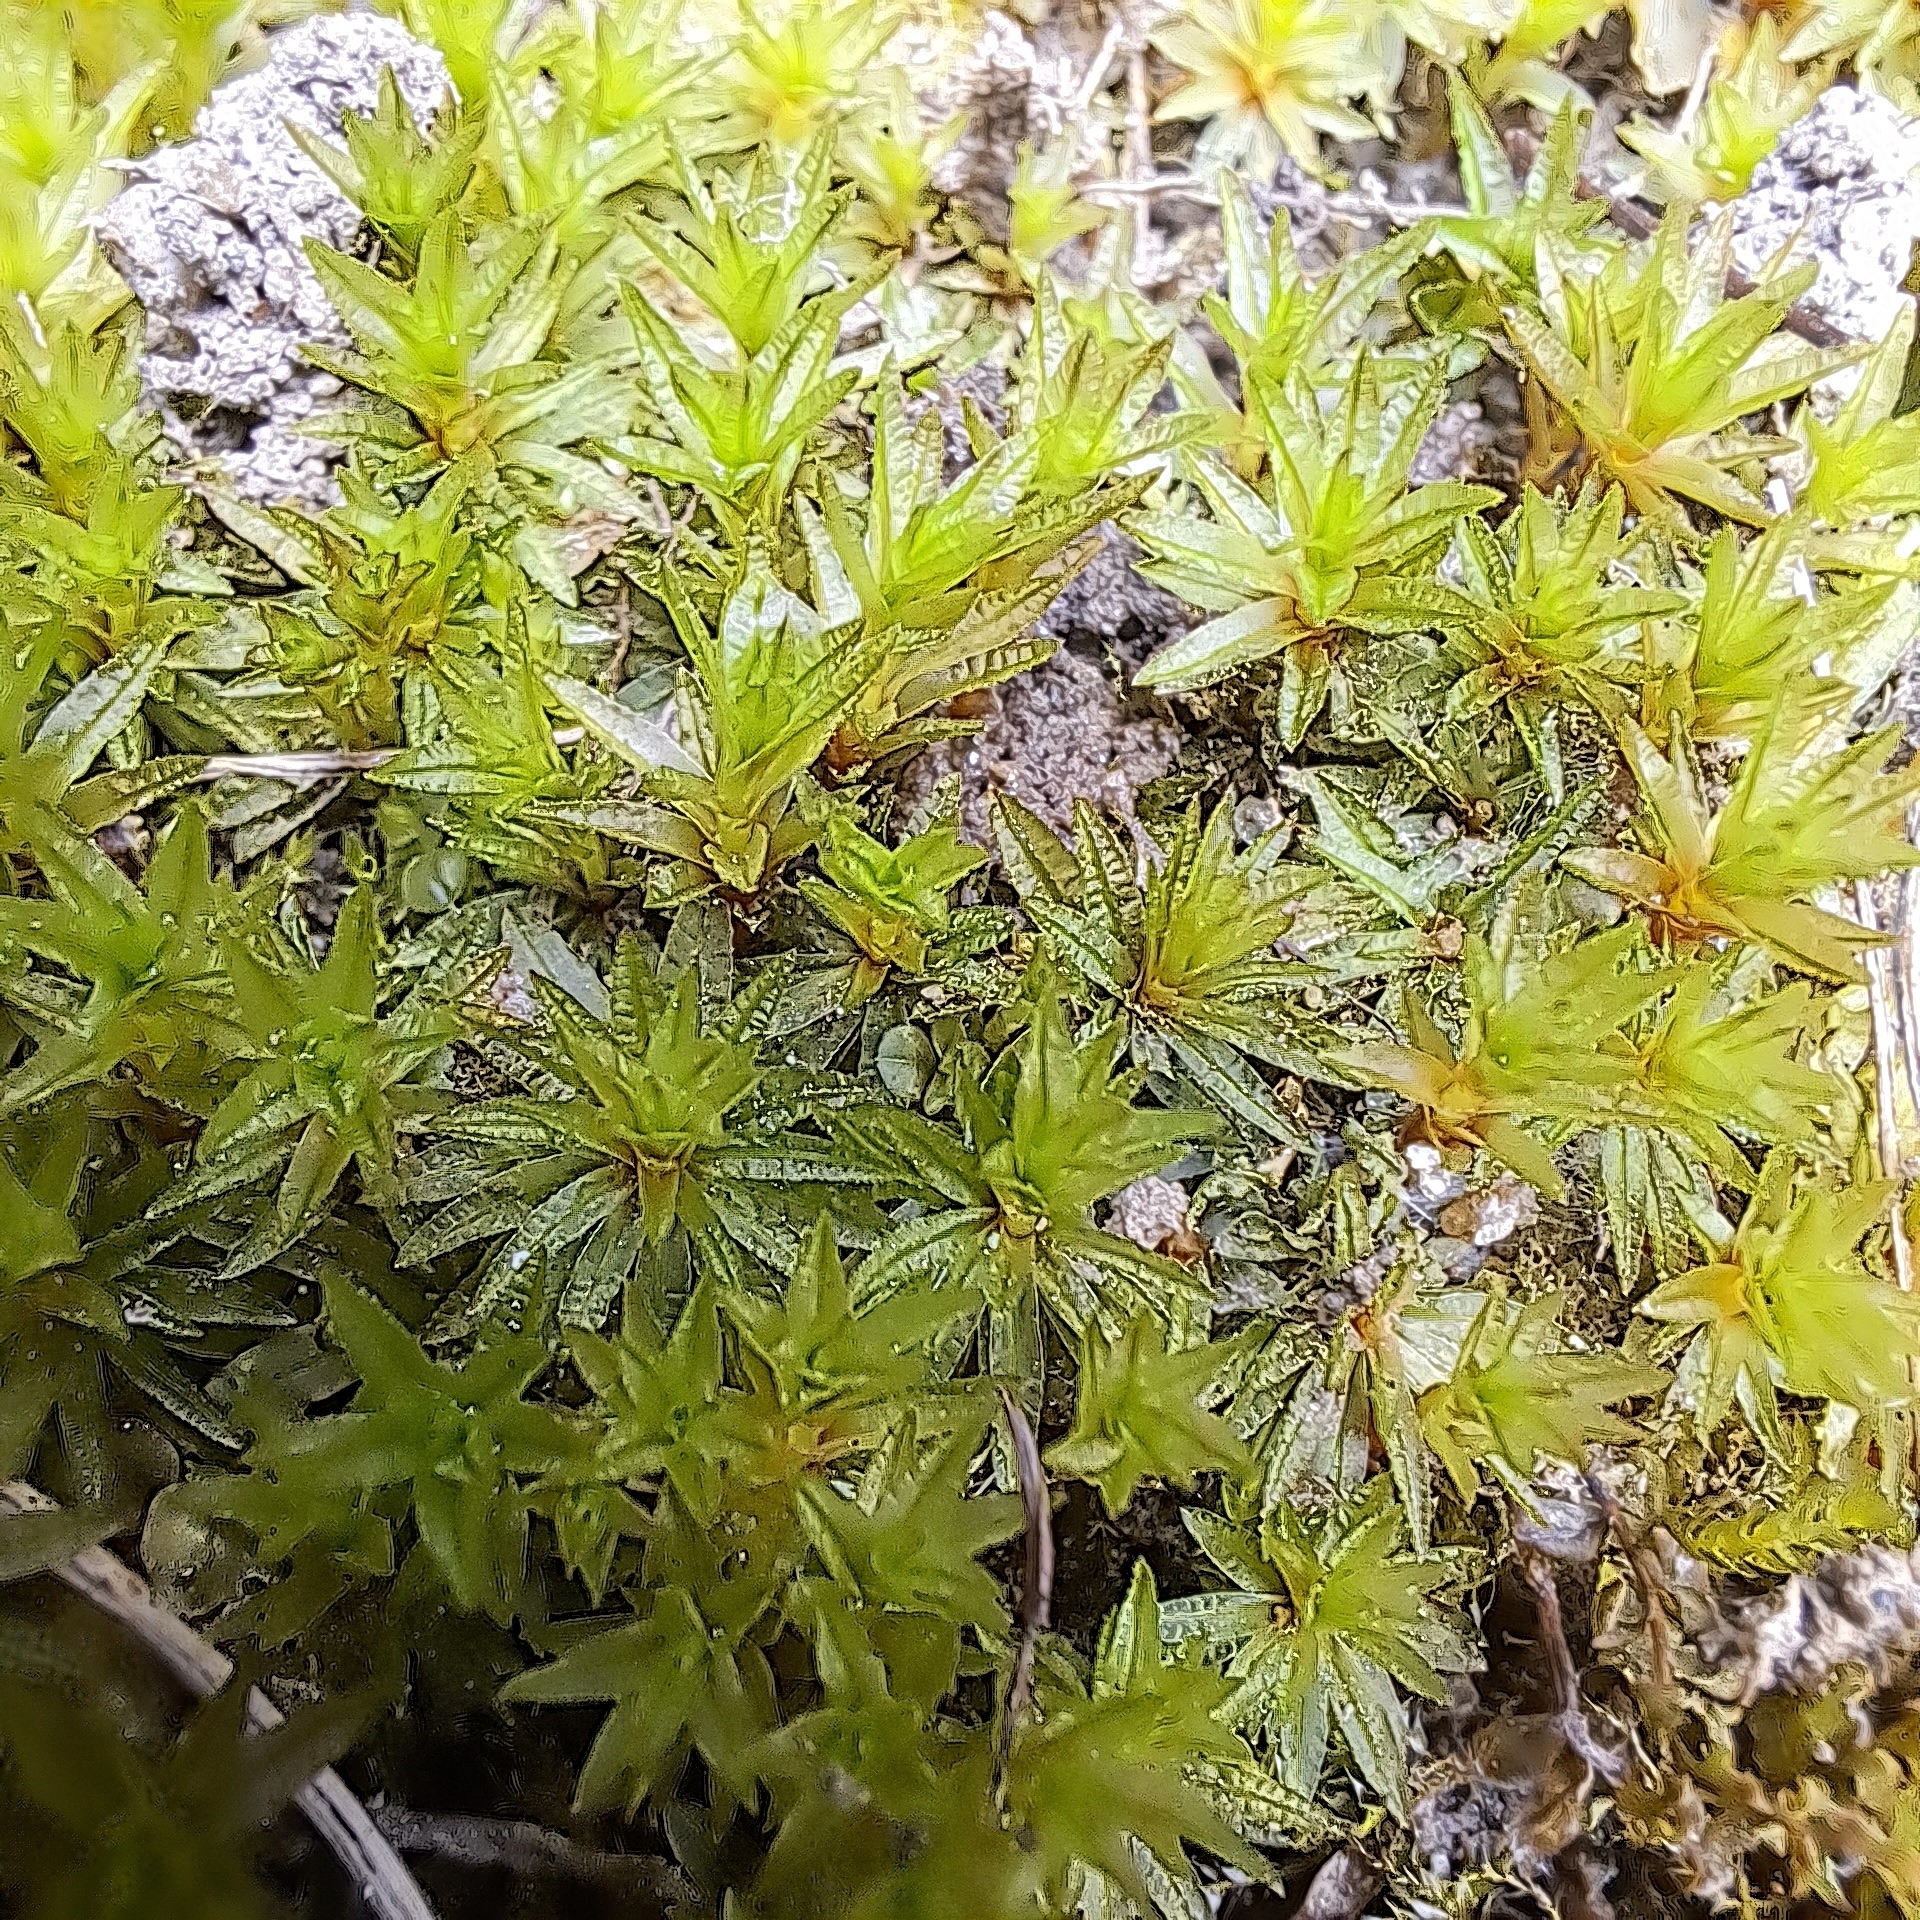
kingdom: Plantae
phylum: Bryophyta
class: Polytrichopsida
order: Polytrichales
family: Polytrichaceae
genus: Atrichum
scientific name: Atrichum undulatum
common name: Common smoothcap
